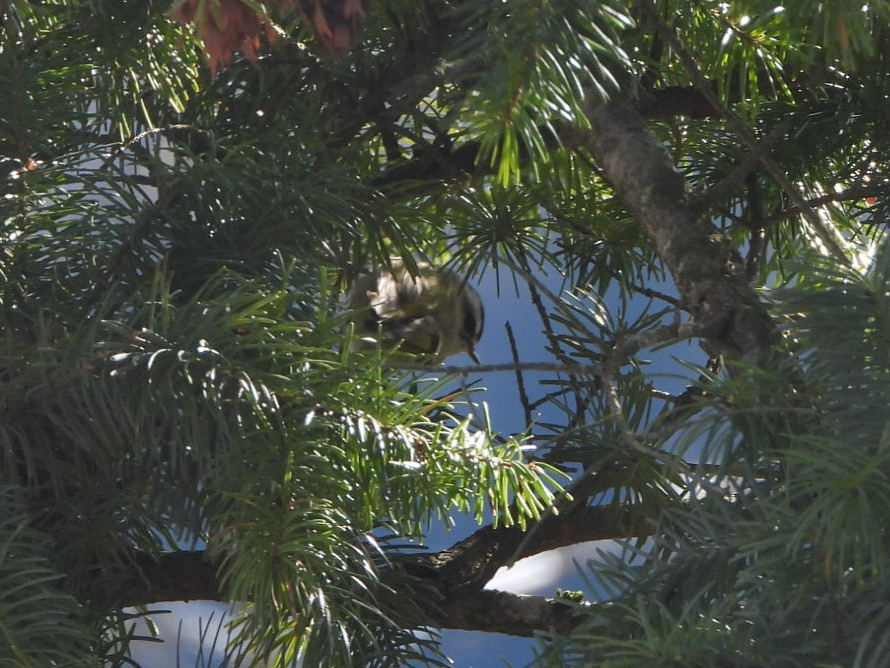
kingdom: Animalia
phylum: Chordata
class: Aves
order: Passeriformes
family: Regulidae
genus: Regulus
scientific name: Regulus satrapa
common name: Golden-crowned kinglet
